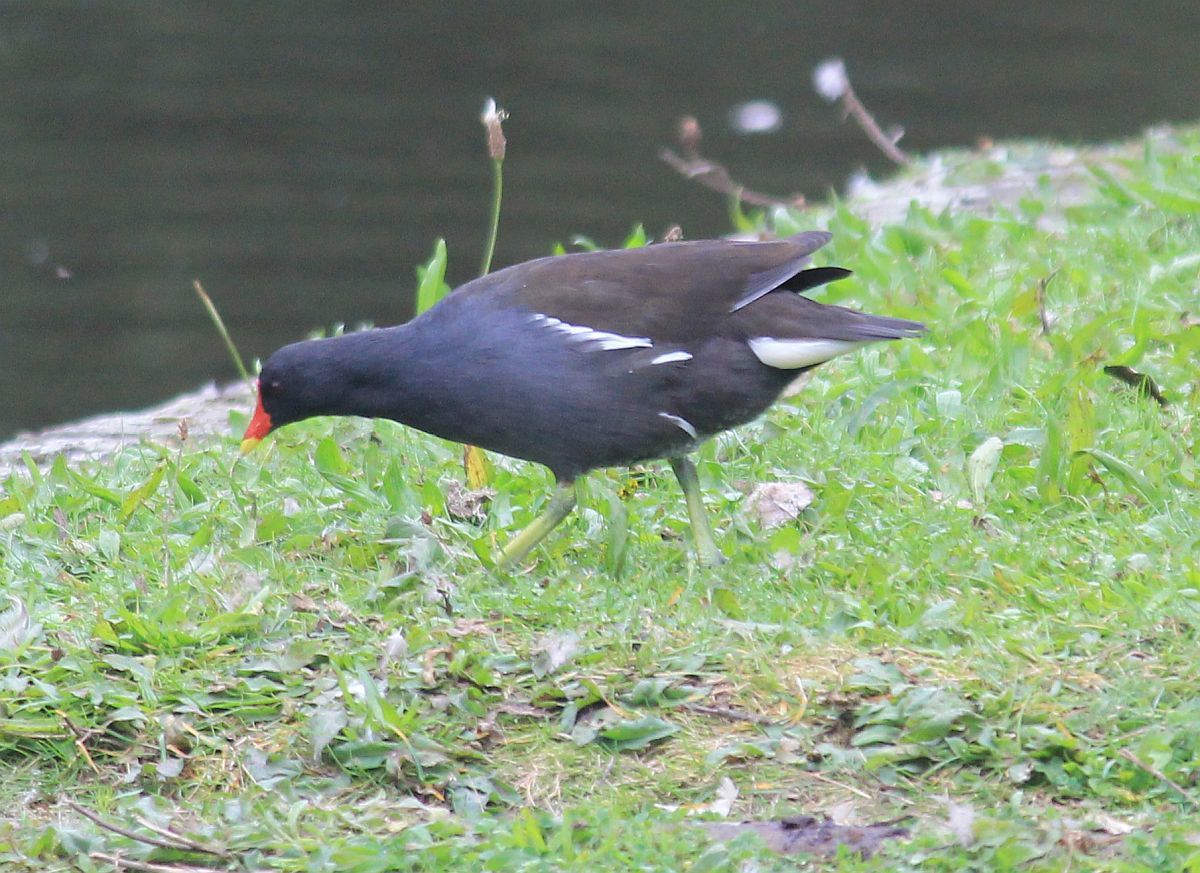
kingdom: Animalia
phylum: Chordata
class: Aves
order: Gruiformes
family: Rallidae
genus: Gallinula
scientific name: Gallinula chloropus
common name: Common moorhen
